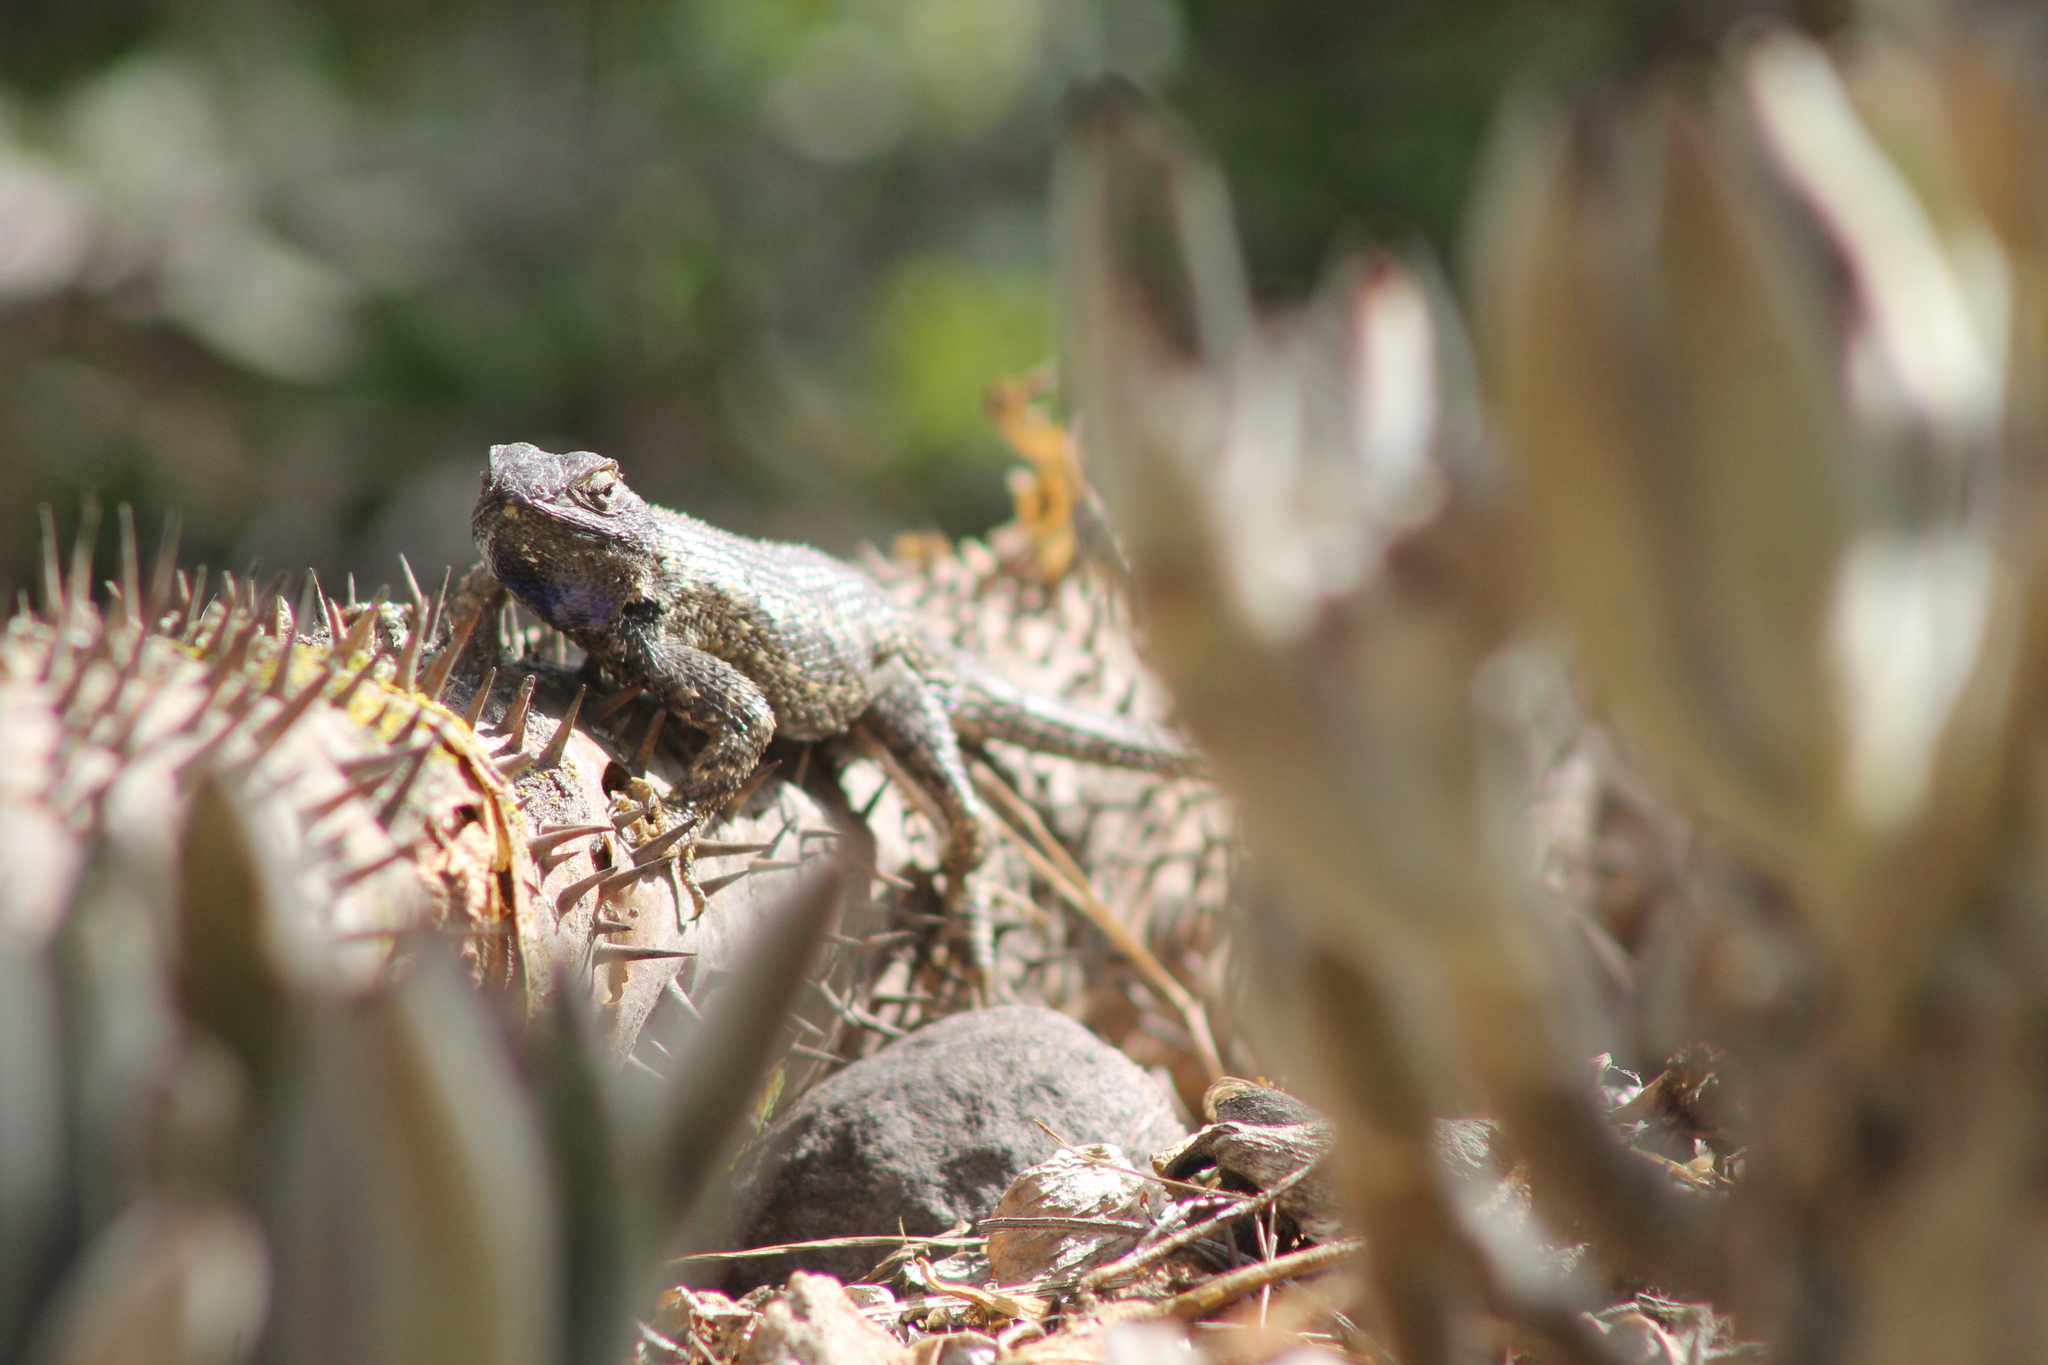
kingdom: Animalia
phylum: Chordata
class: Squamata
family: Phrynosomatidae
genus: Sceloporus
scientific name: Sceloporus occidentalis
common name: Western fence lizard
